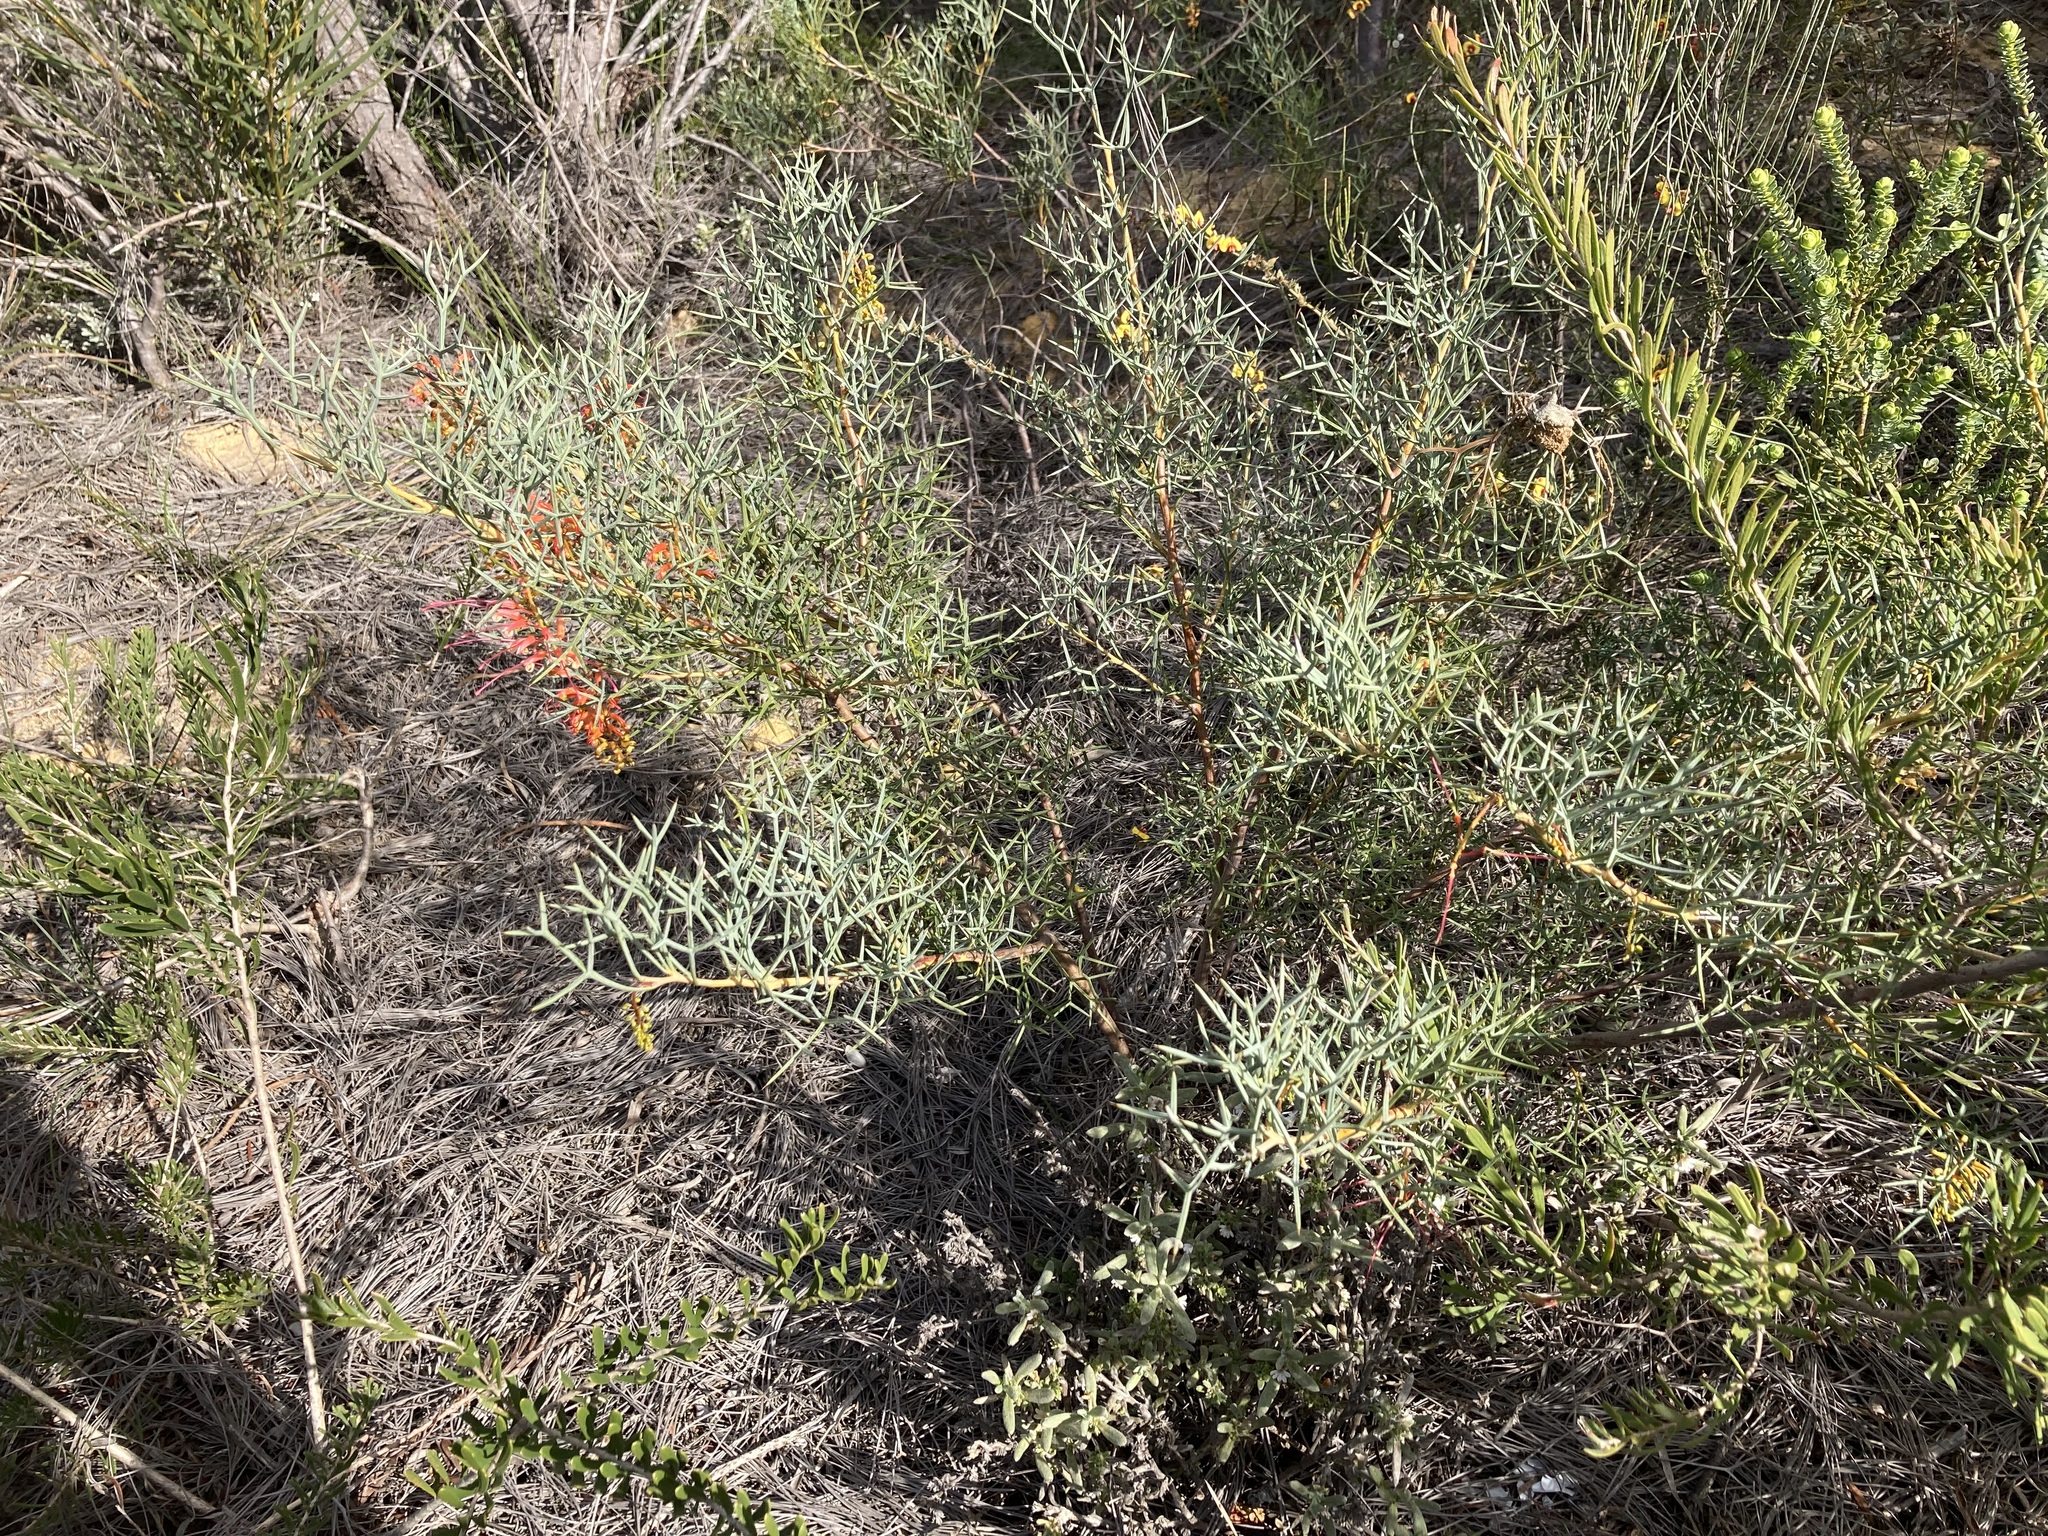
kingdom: Plantae
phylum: Tracheophyta
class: Magnoliopsida
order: Proteales
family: Proteaceae
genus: Grevillea
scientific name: Grevillea dielsiana
